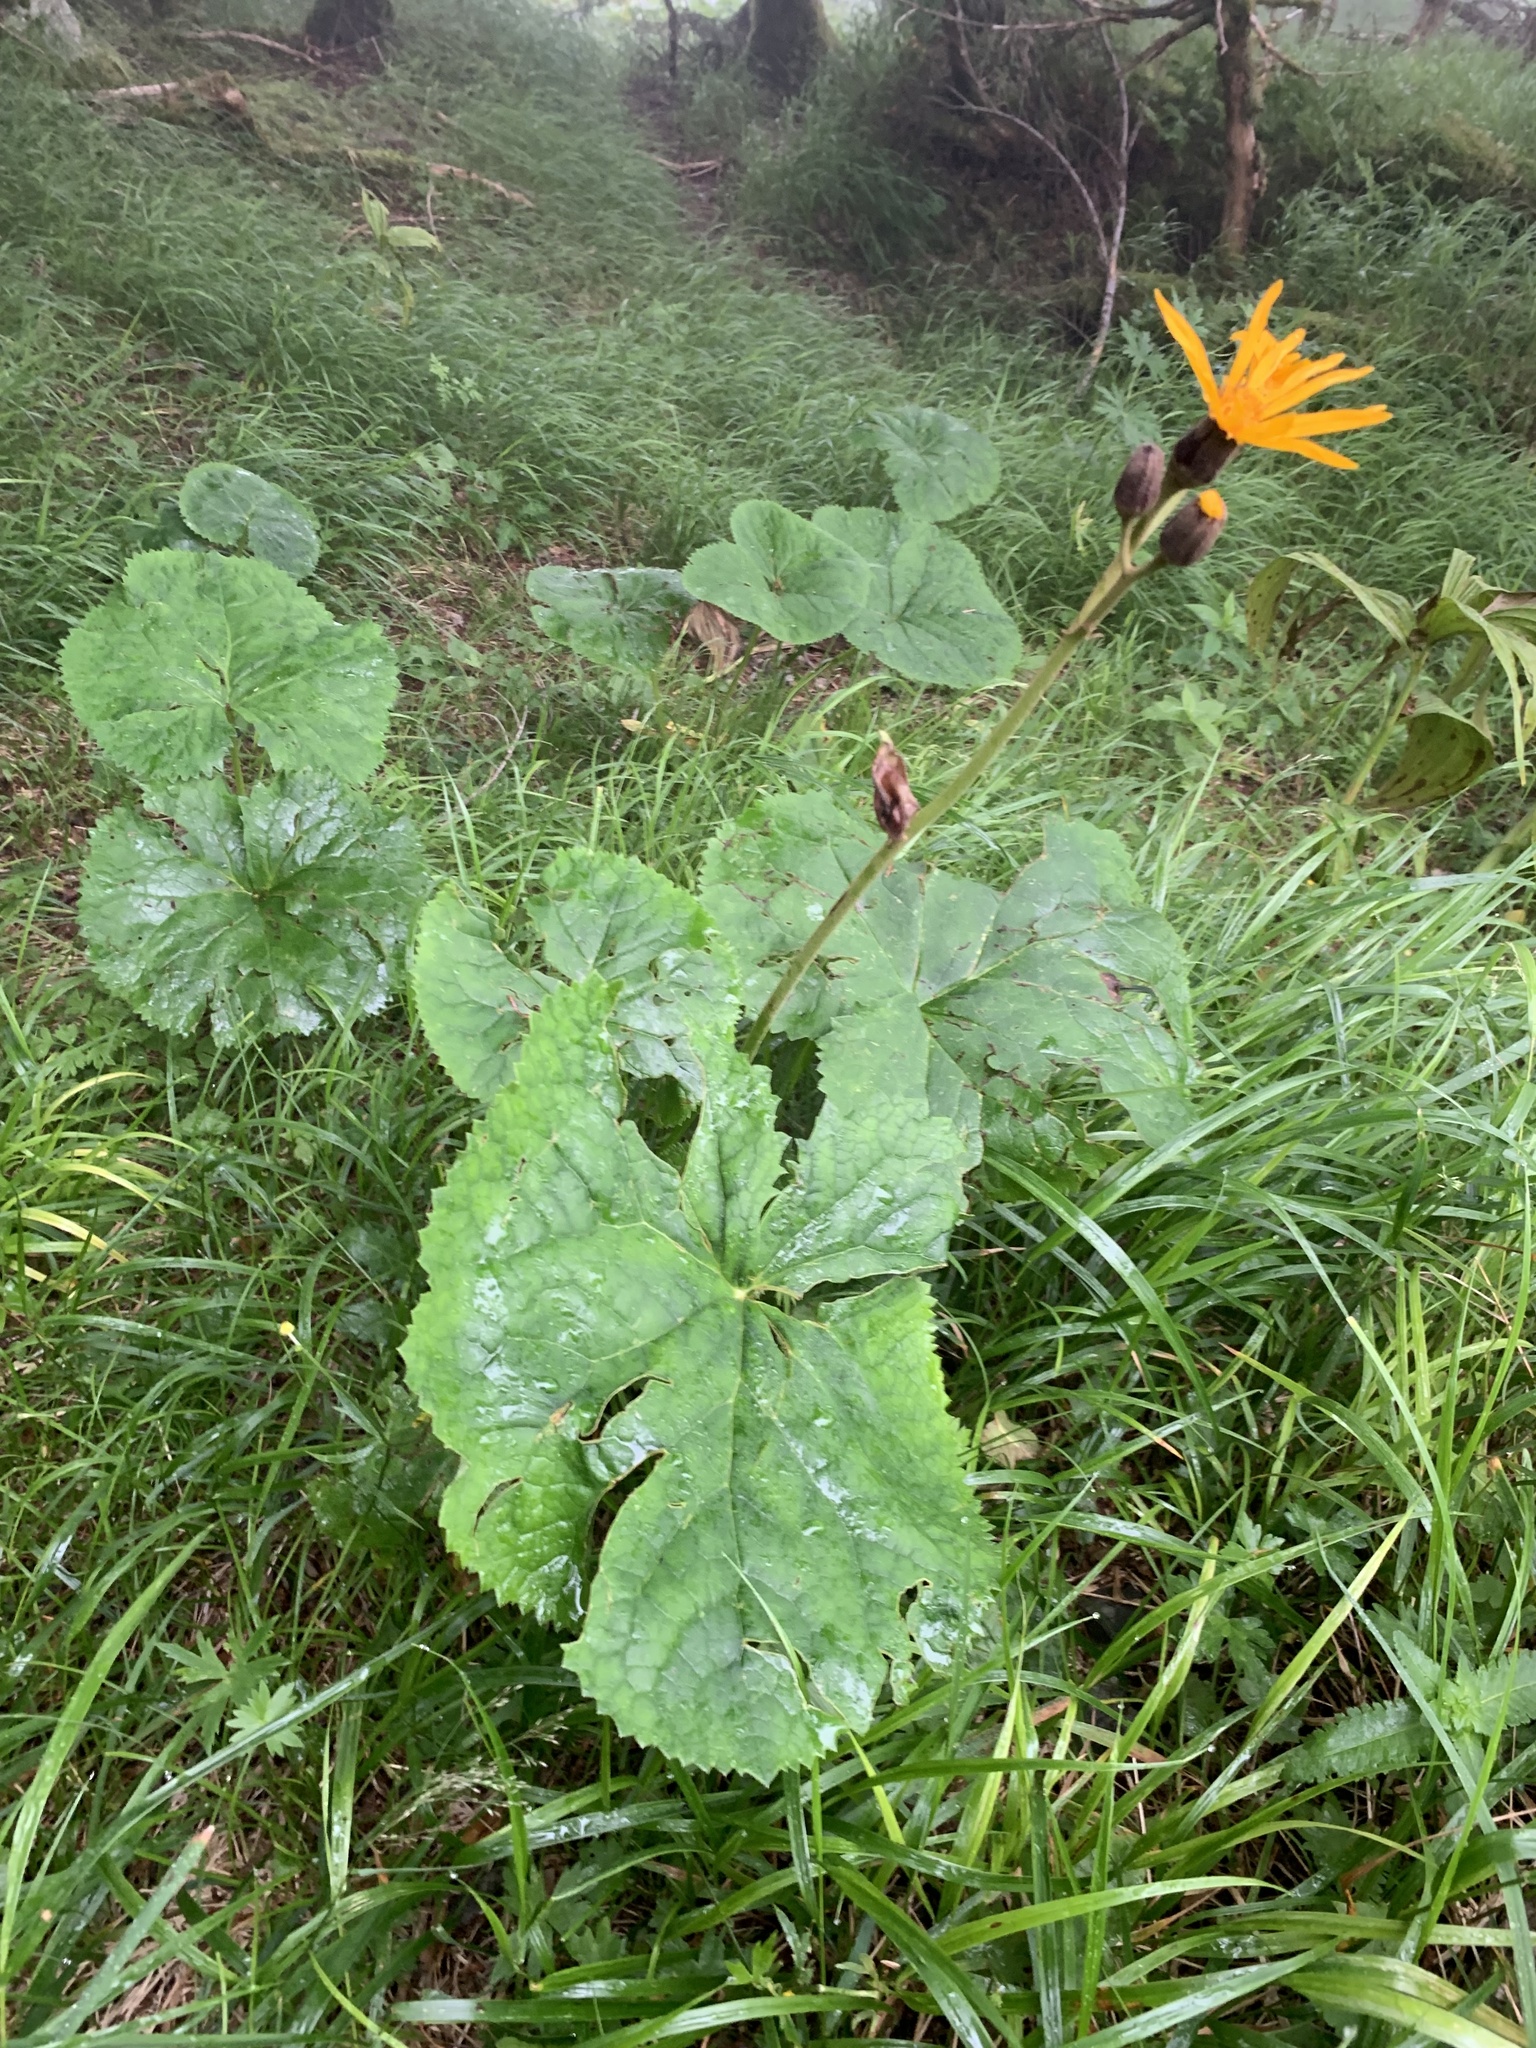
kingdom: Plantae
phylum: Tracheophyta
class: Magnoliopsida
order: Asterales
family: Asteraceae
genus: Ligularia
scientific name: Ligularia dentata
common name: Leopardplant
